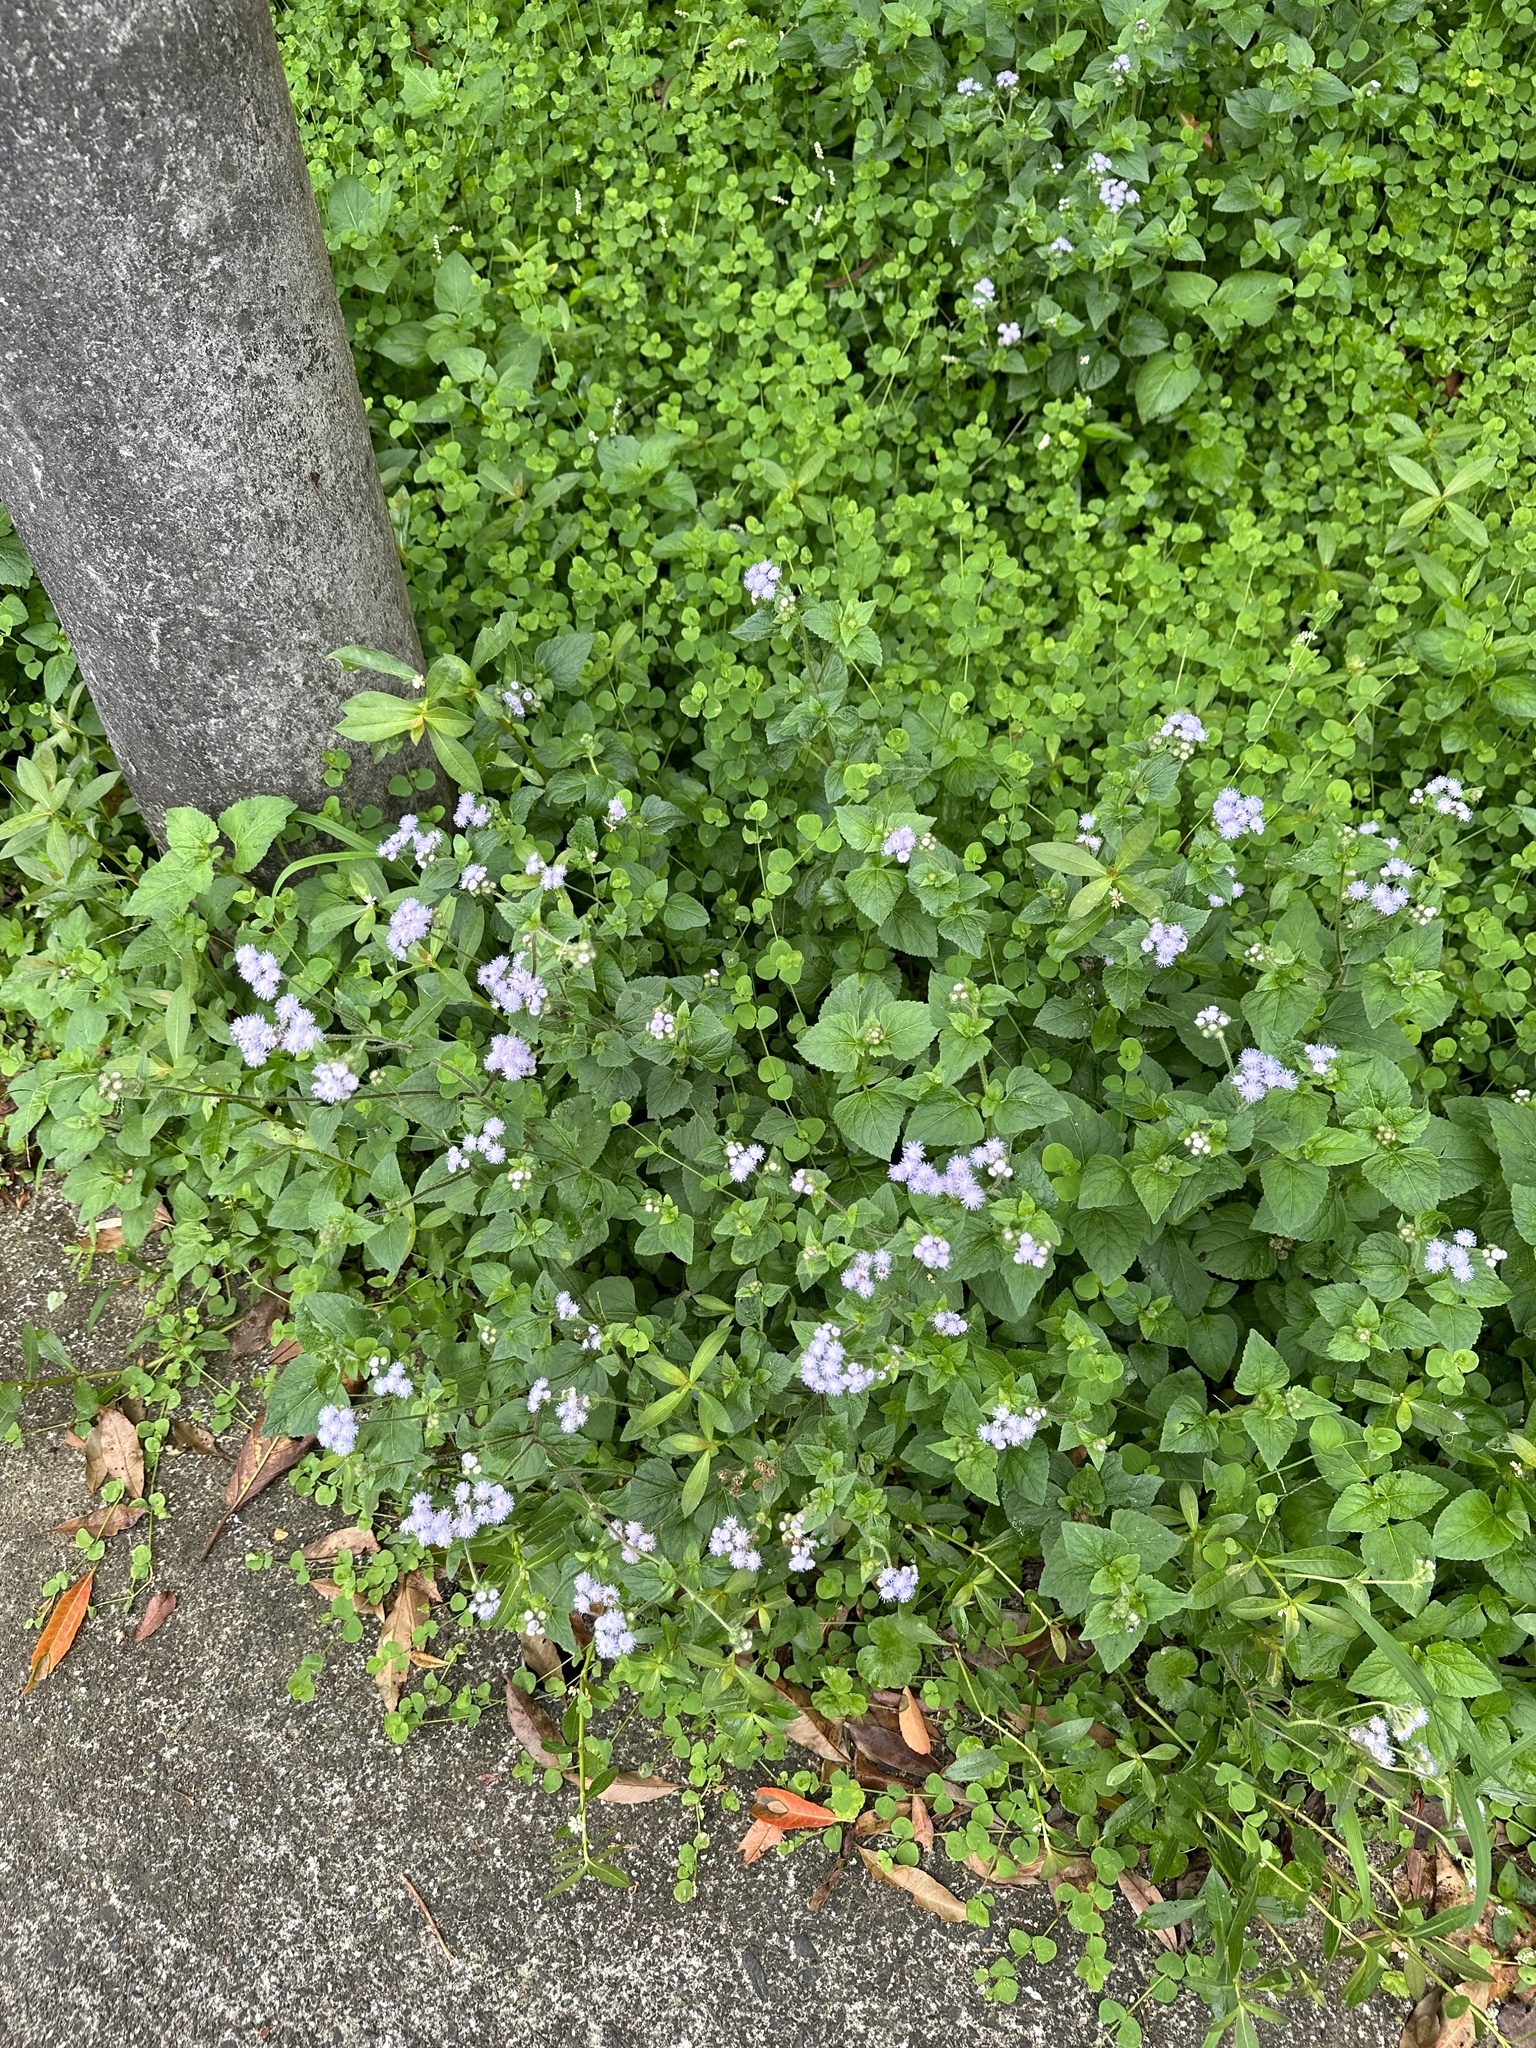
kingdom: Plantae
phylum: Tracheophyta
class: Magnoliopsida
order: Asterales
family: Asteraceae
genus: Ageratum
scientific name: Ageratum houstonianum
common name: Bluemink
